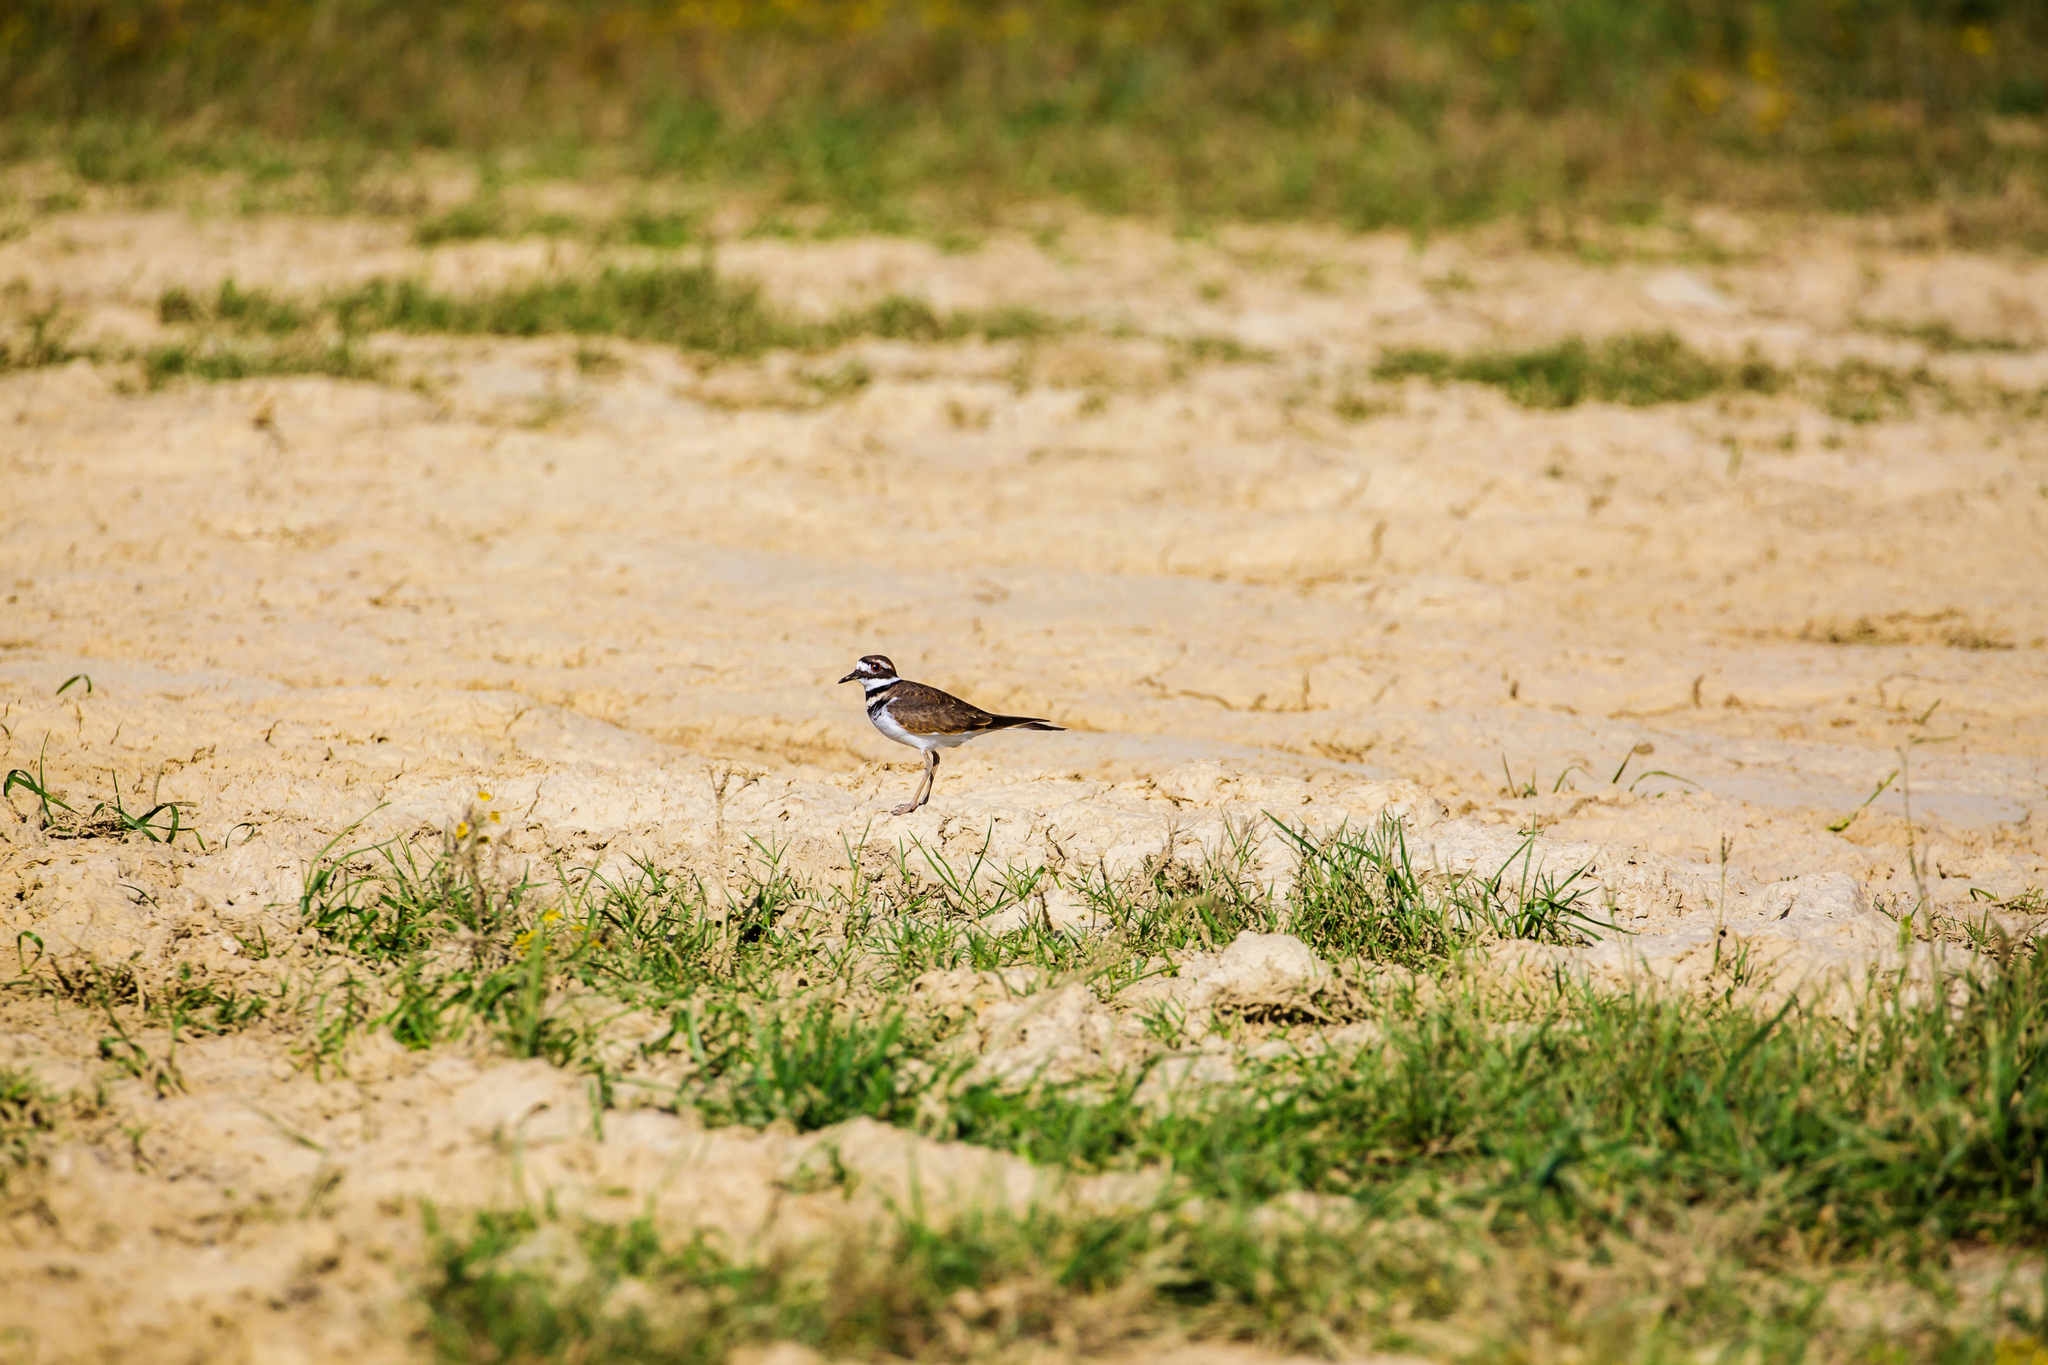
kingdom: Animalia
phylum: Chordata
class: Aves
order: Charadriiformes
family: Charadriidae
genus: Charadrius
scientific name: Charadrius vociferus
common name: Killdeer
